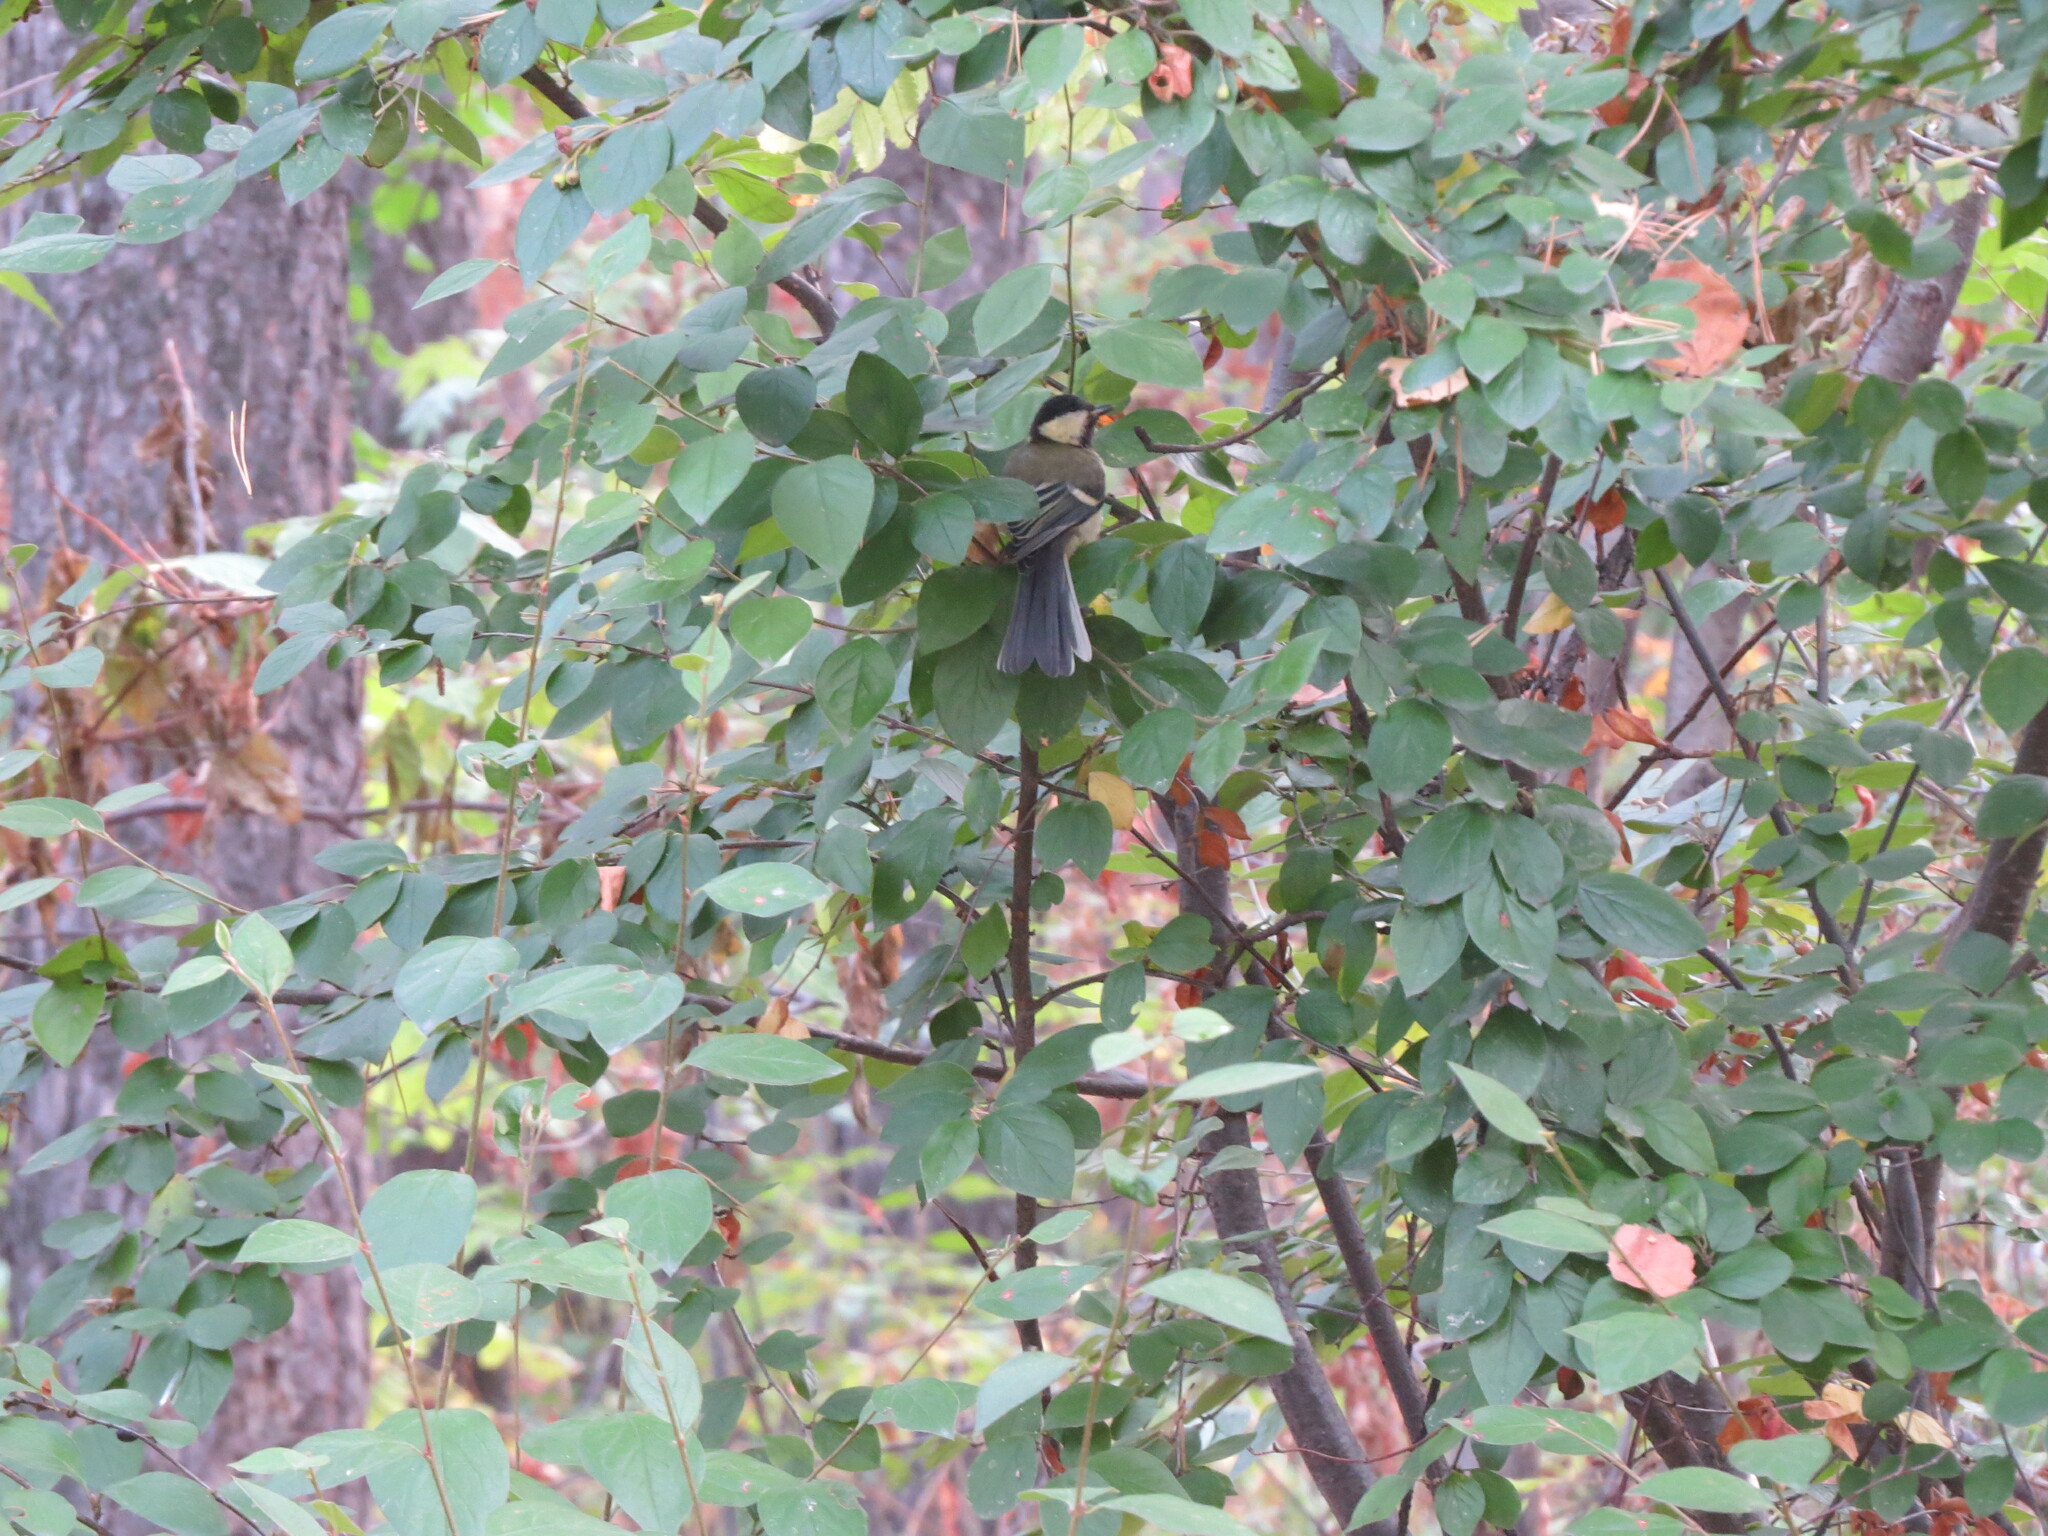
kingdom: Animalia
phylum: Chordata
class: Aves
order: Passeriformes
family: Paridae
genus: Parus
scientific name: Parus major
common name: Great tit
